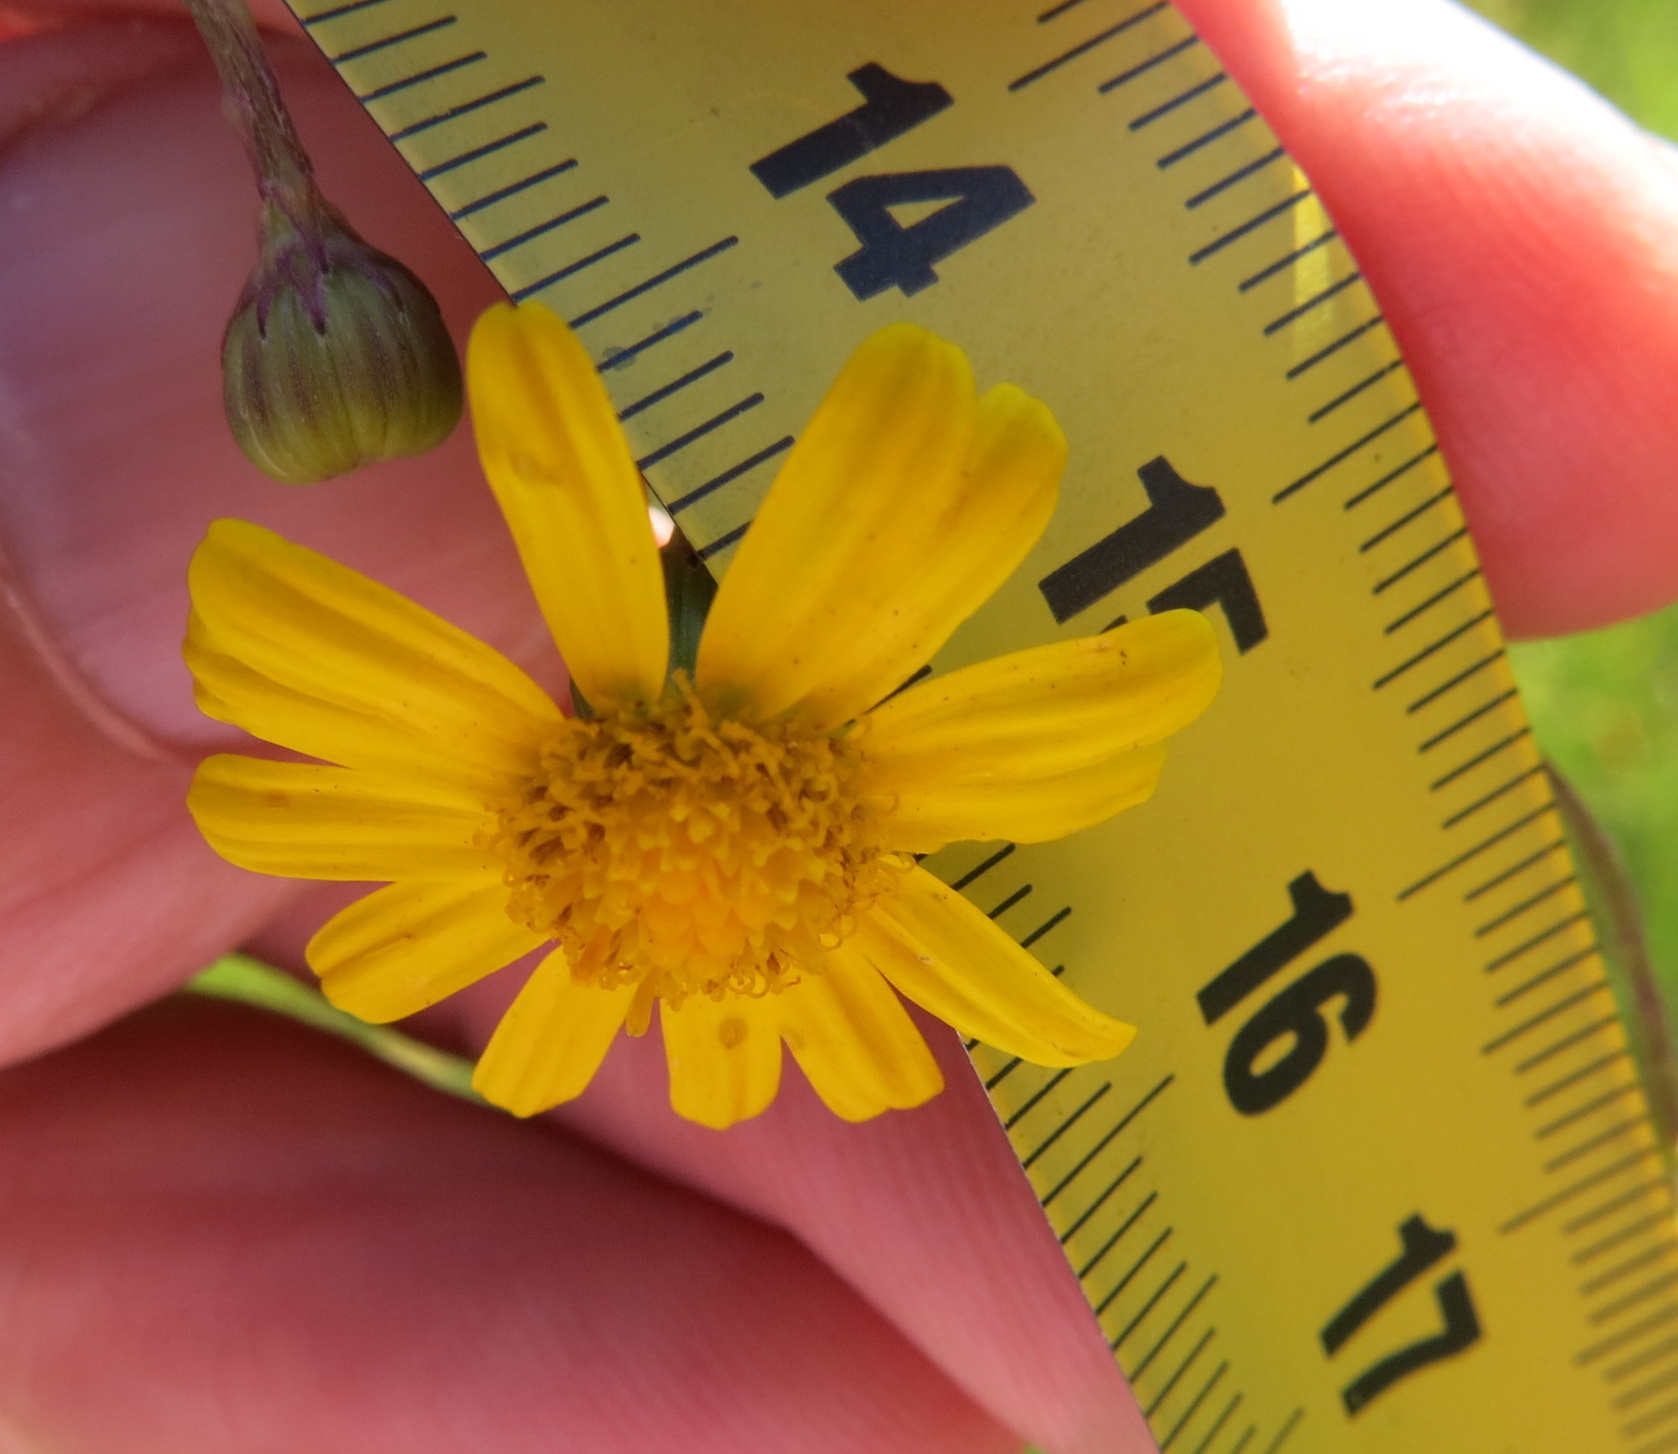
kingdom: Plantae
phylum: Tracheophyta
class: Magnoliopsida
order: Asterales
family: Asteraceae
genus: Senecio
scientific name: Senecio inaequidens
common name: Narrow-leaved ragwort
